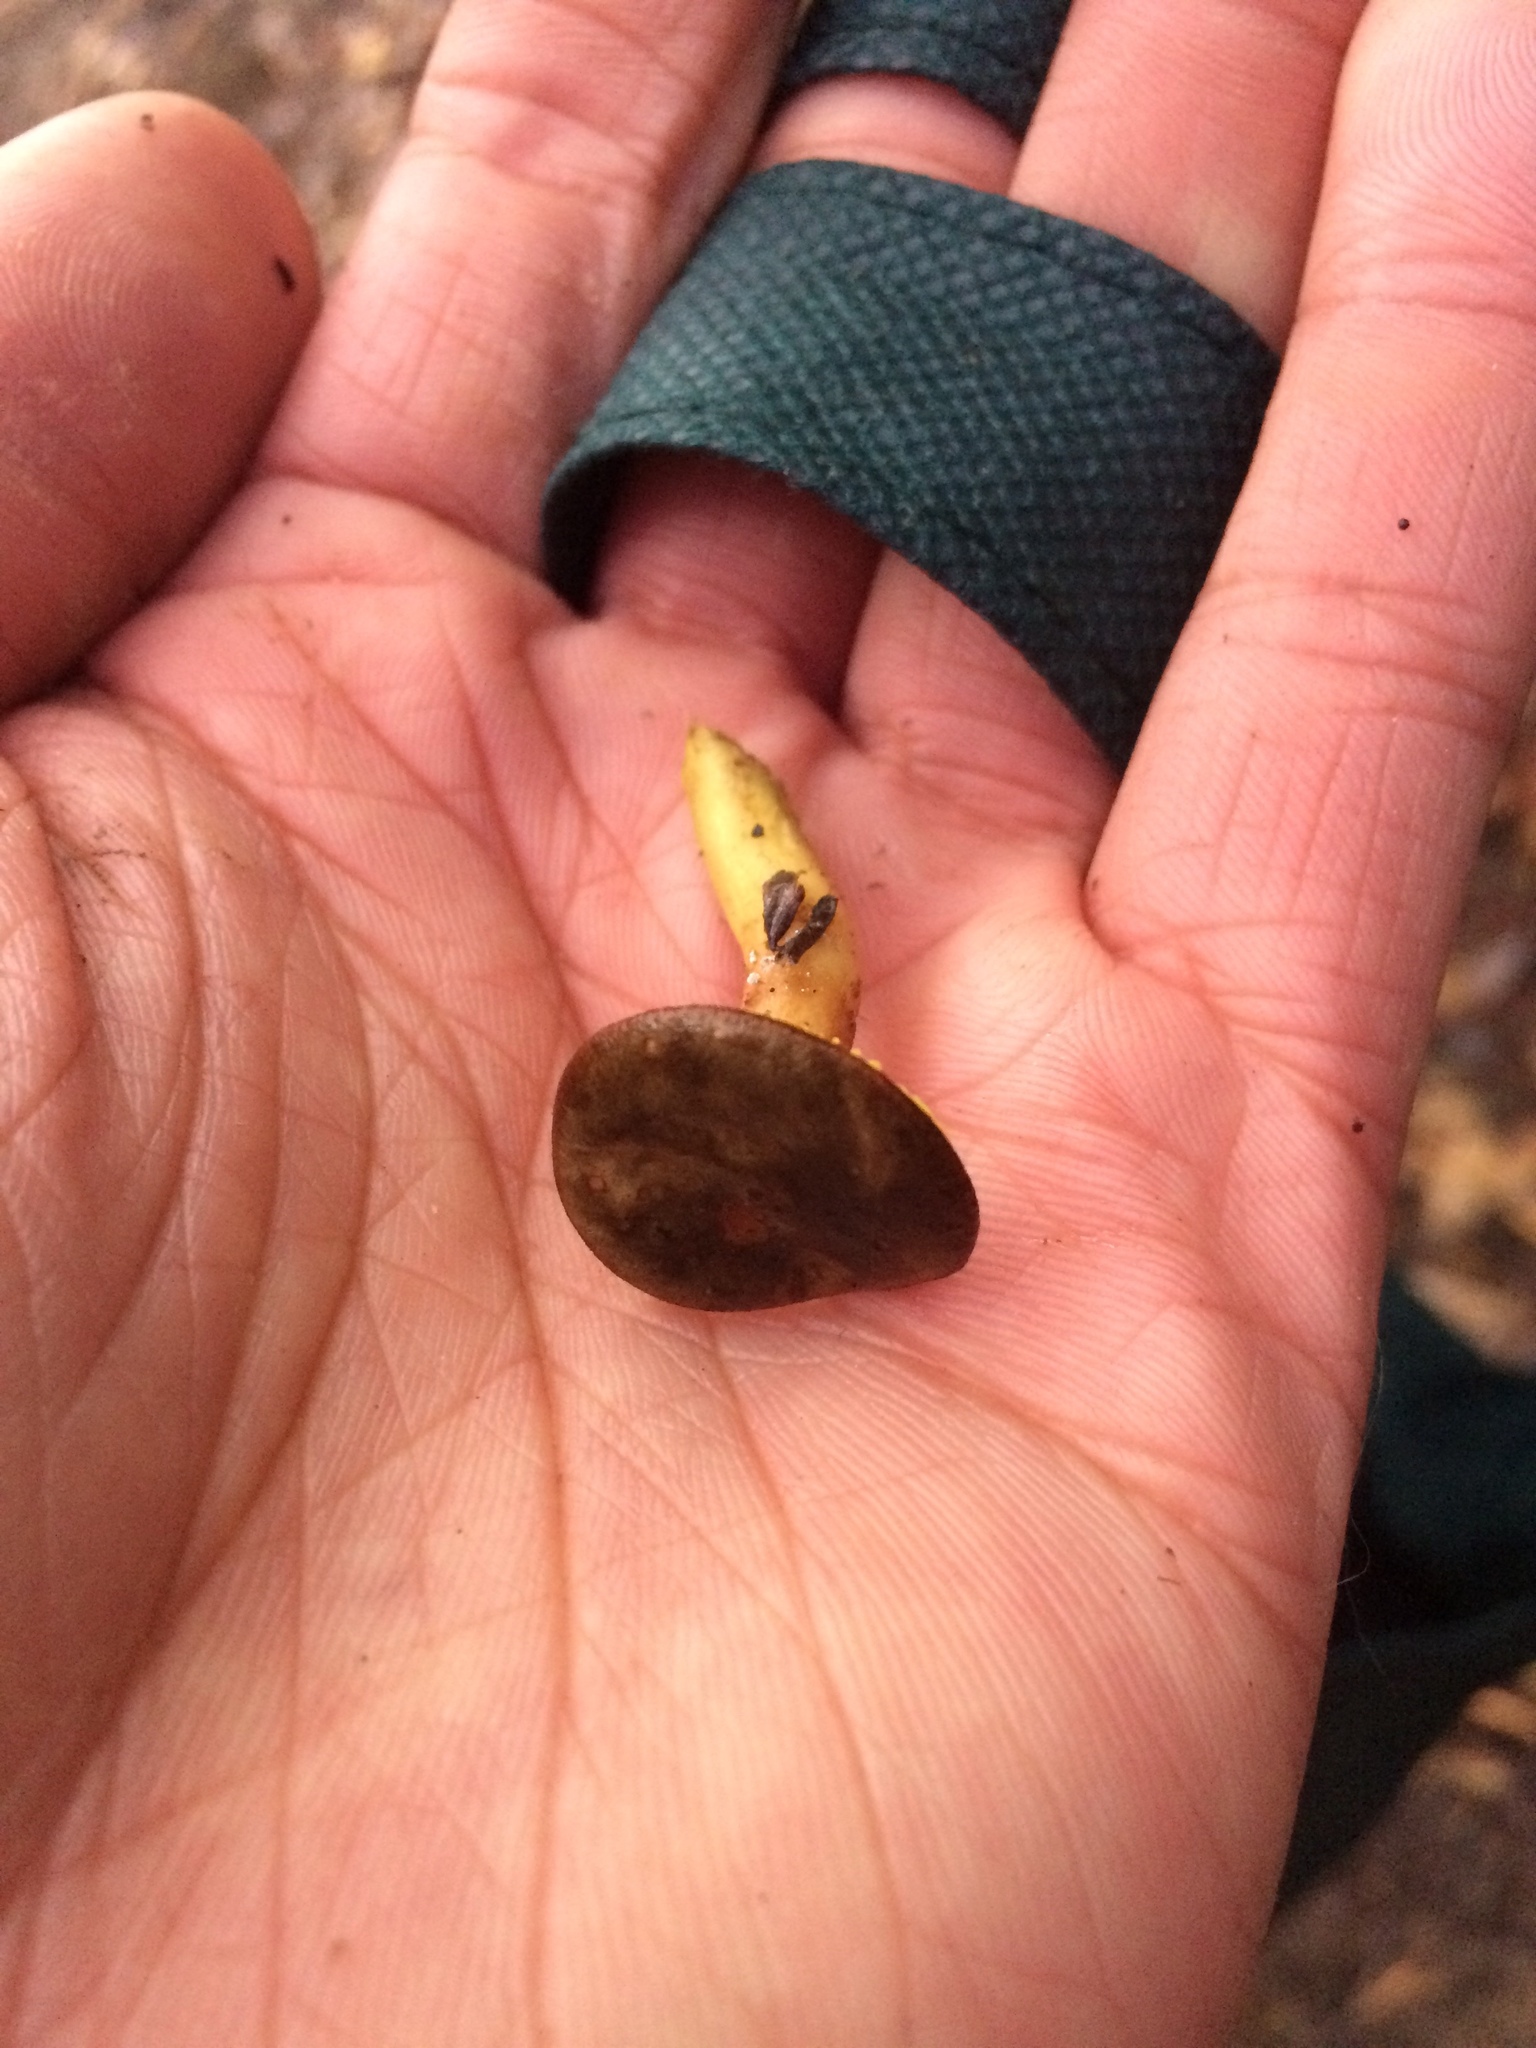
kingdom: Fungi
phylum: Basidiomycota
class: Agaricomycetes
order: Boletales
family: Boletaceae
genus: Phylloporus
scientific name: Phylloporus arenicola
